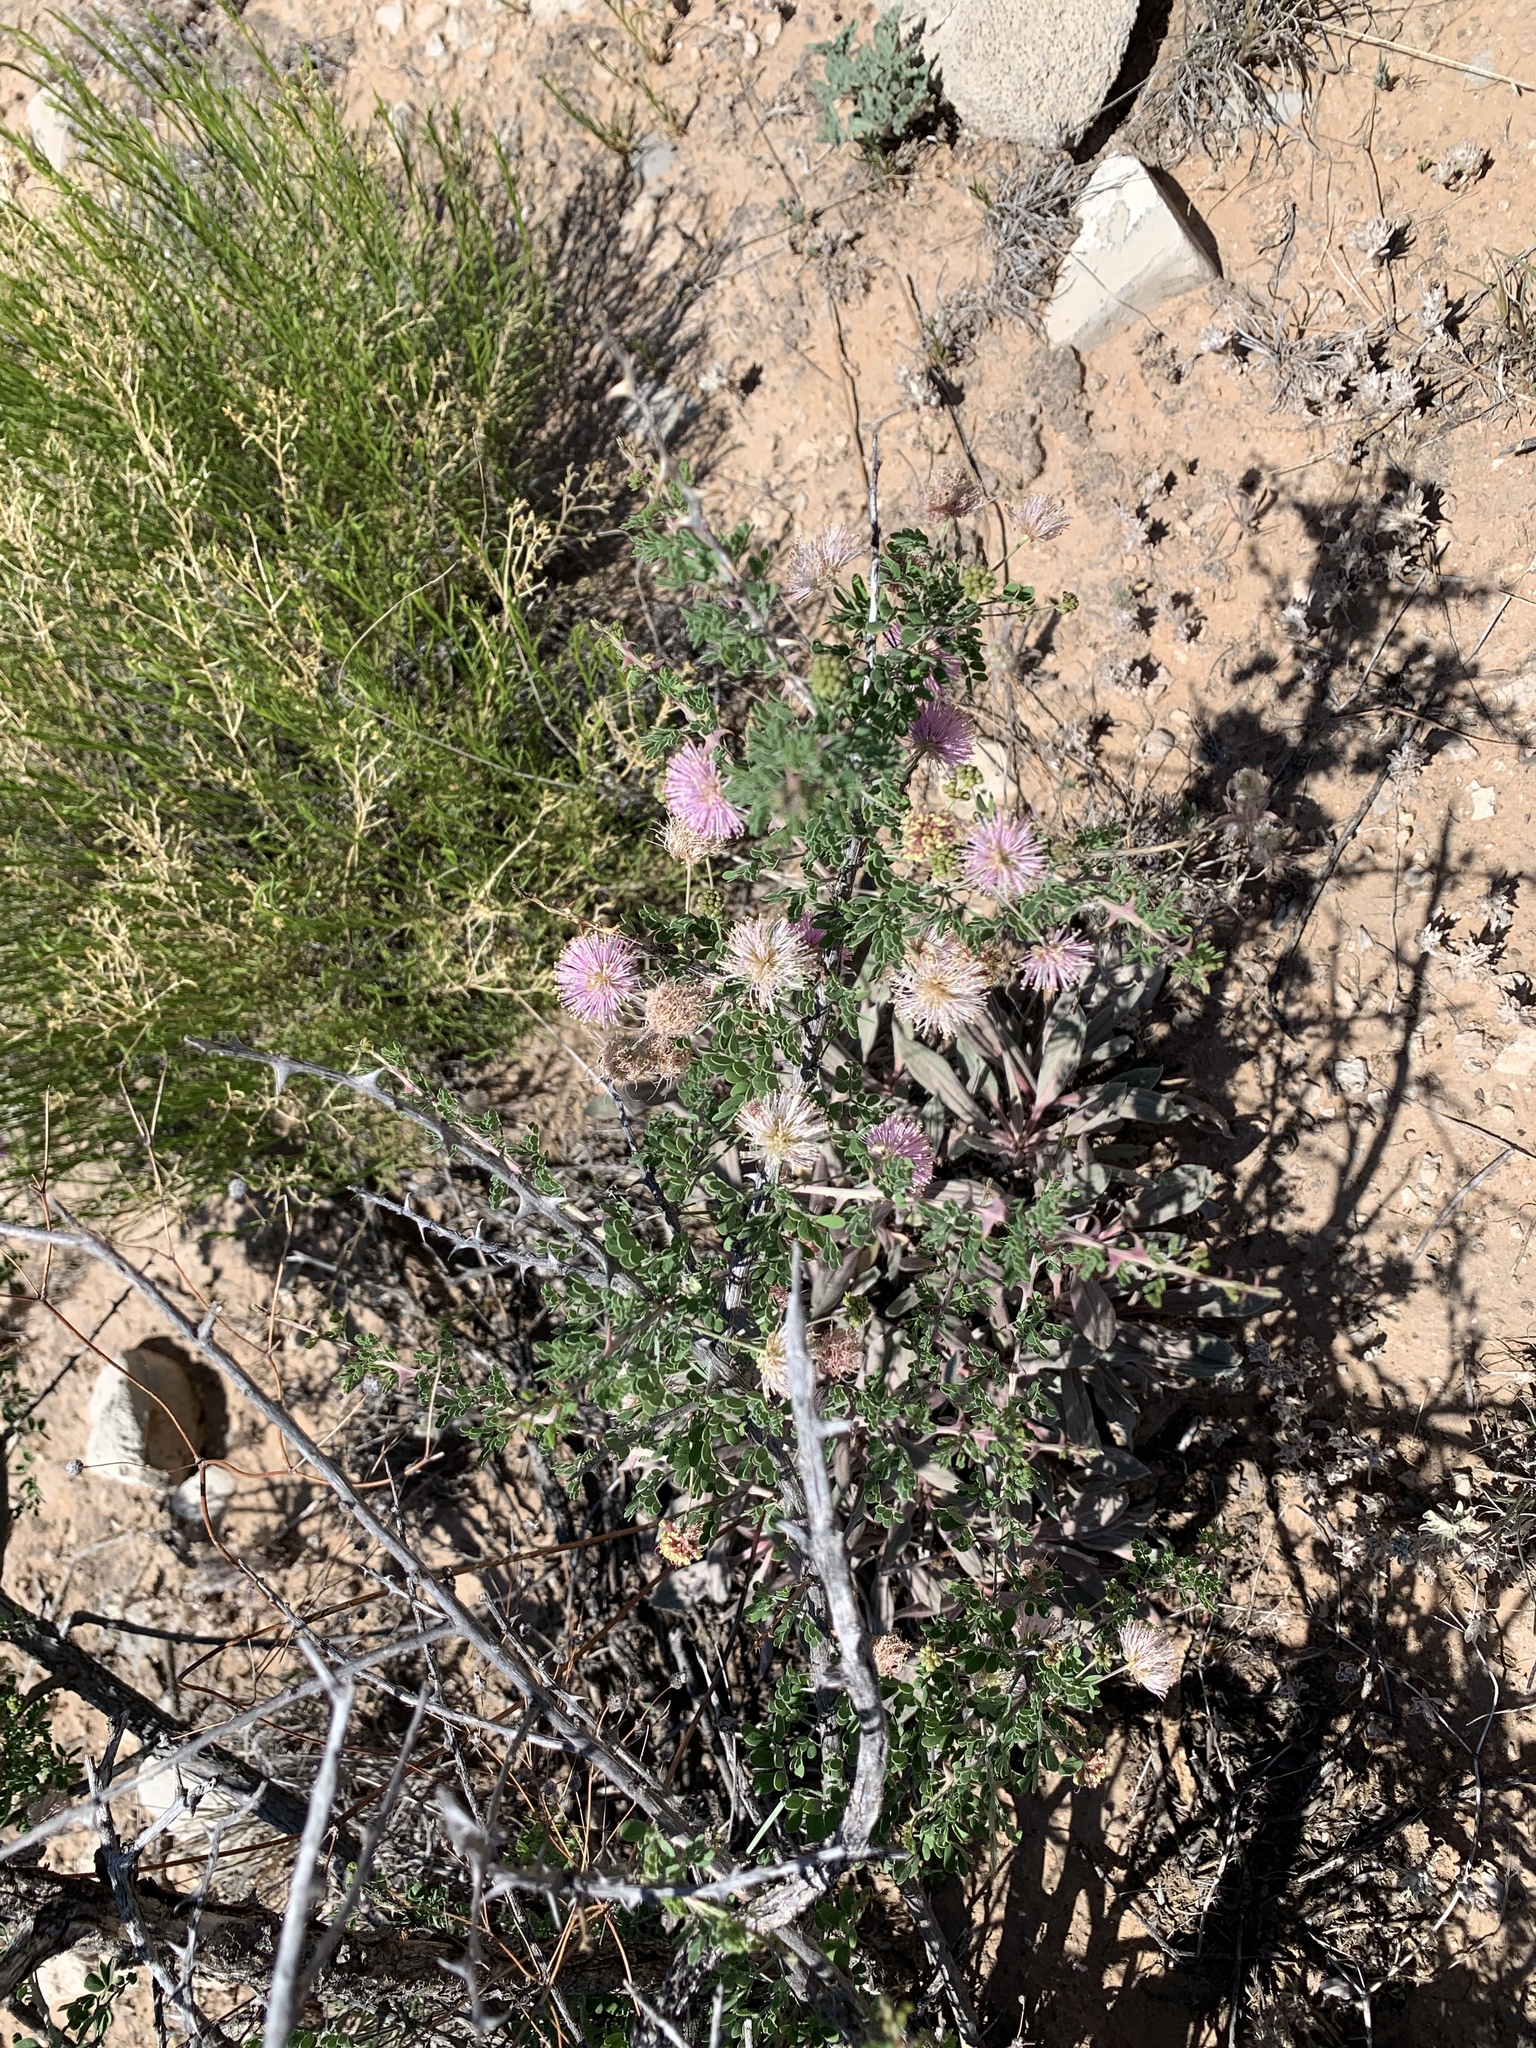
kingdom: Plantae
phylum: Tracheophyta
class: Magnoliopsida
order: Fabales
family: Fabaceae
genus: Mimosa
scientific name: Mimosa borealis
